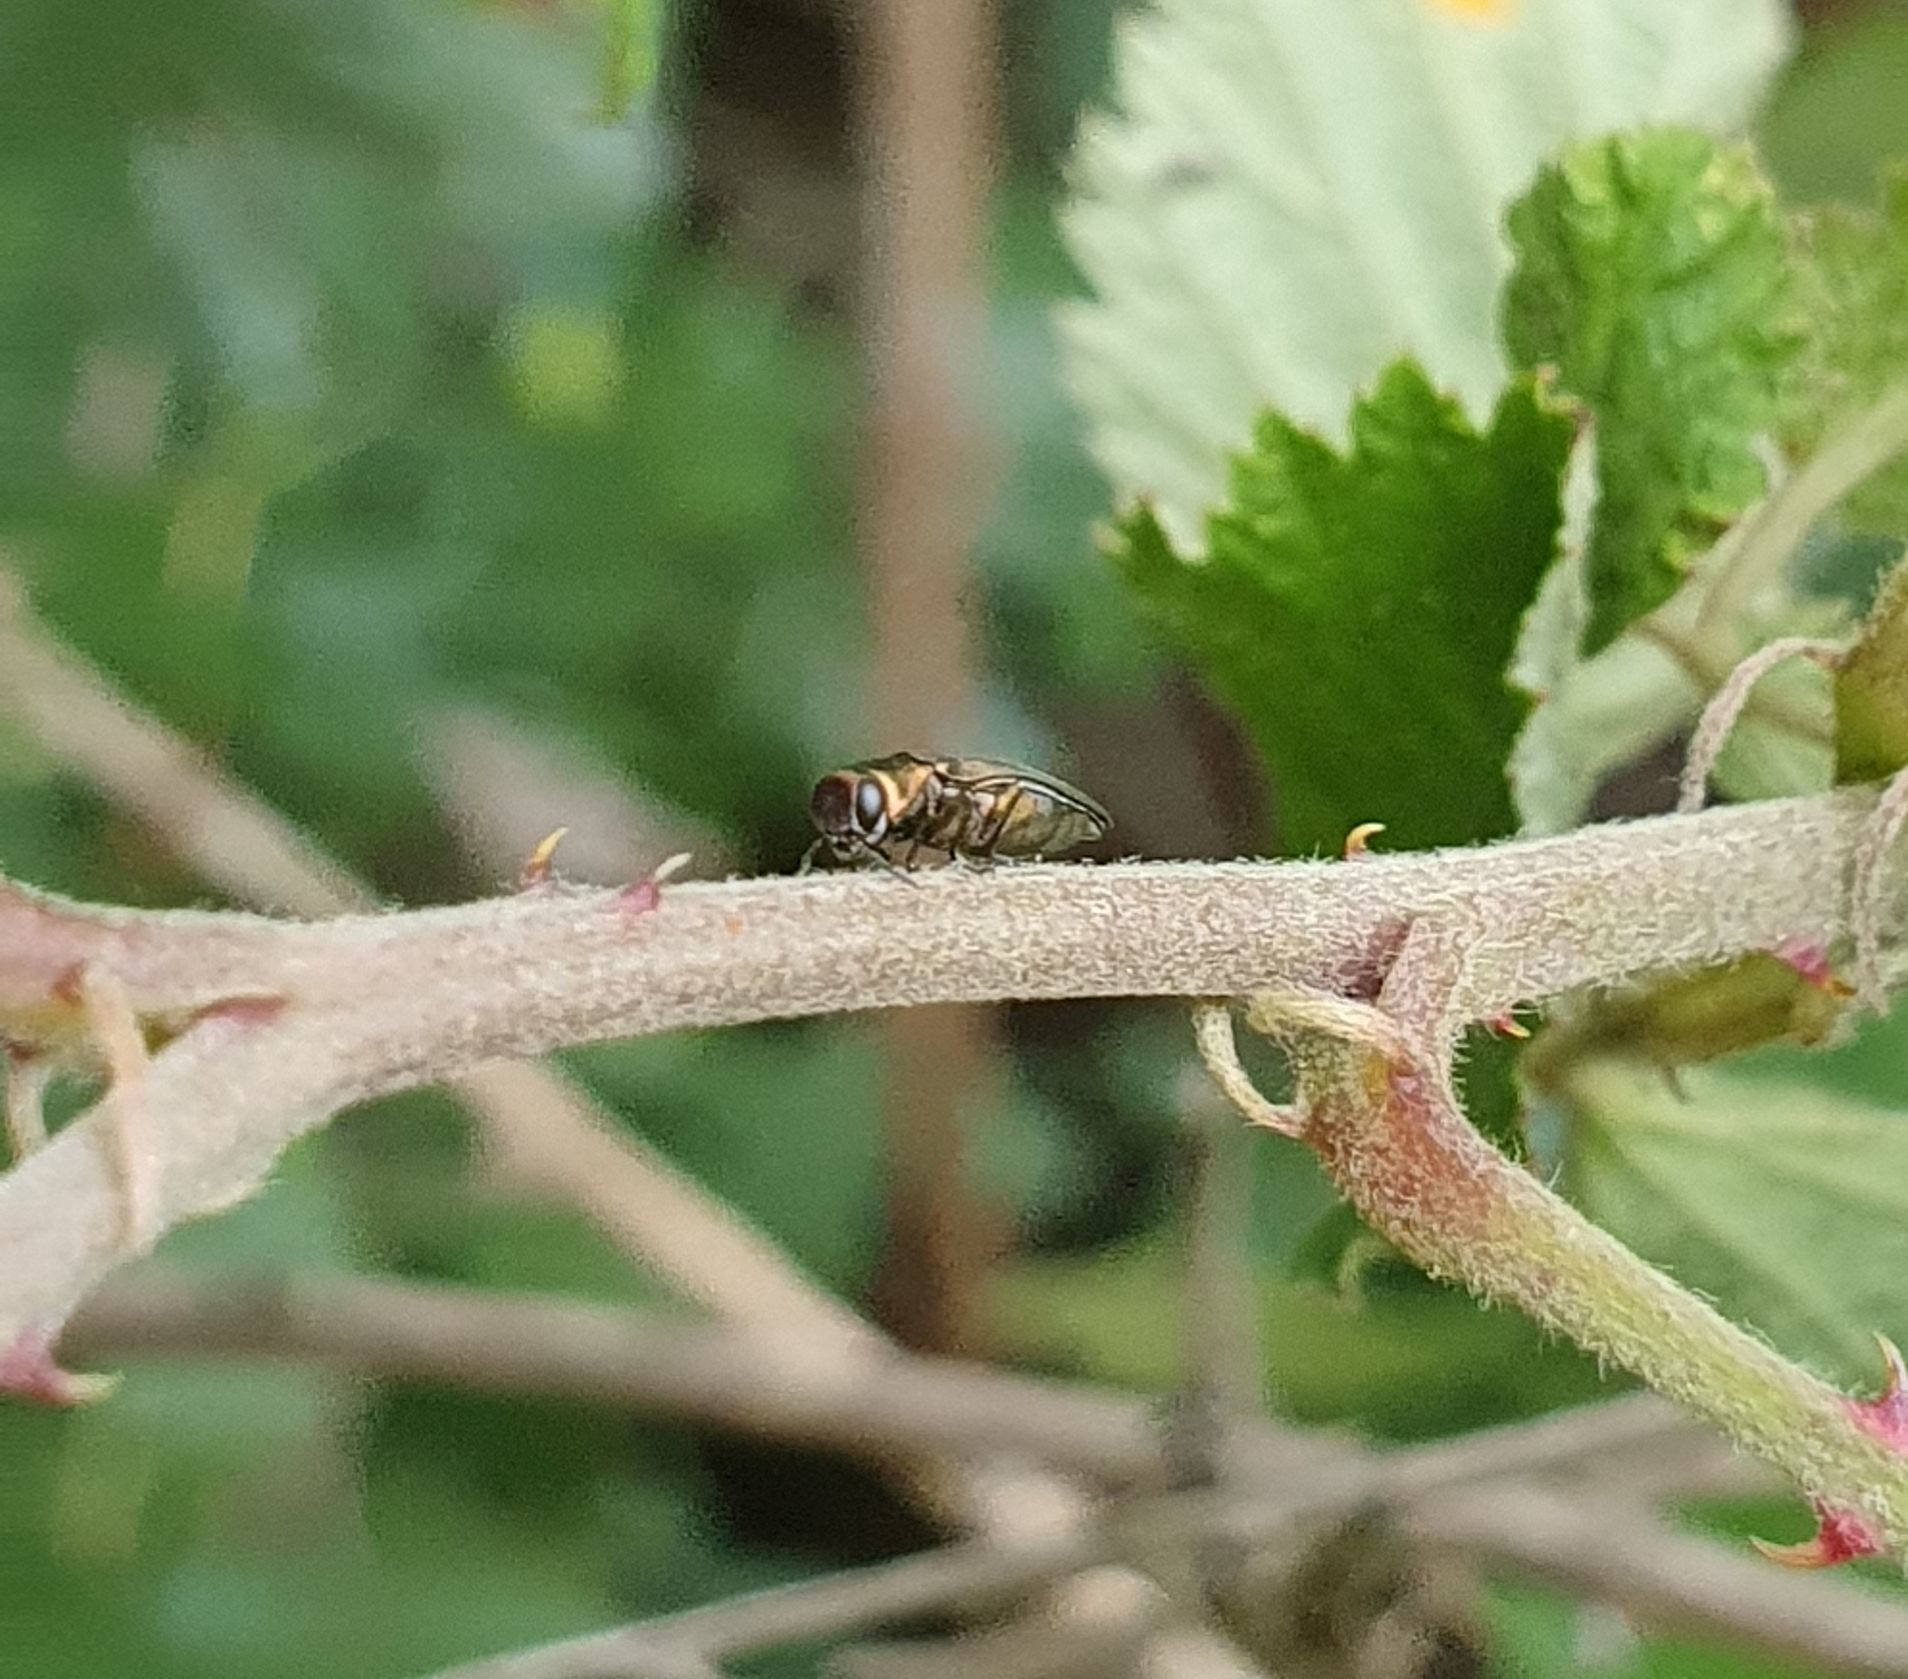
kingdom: Animalia
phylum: Arthropoda
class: Insecta
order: Coleoptera
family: Buprestidae
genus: Agrilus
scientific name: Agrilus cuprescens
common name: Rose stem girdler
